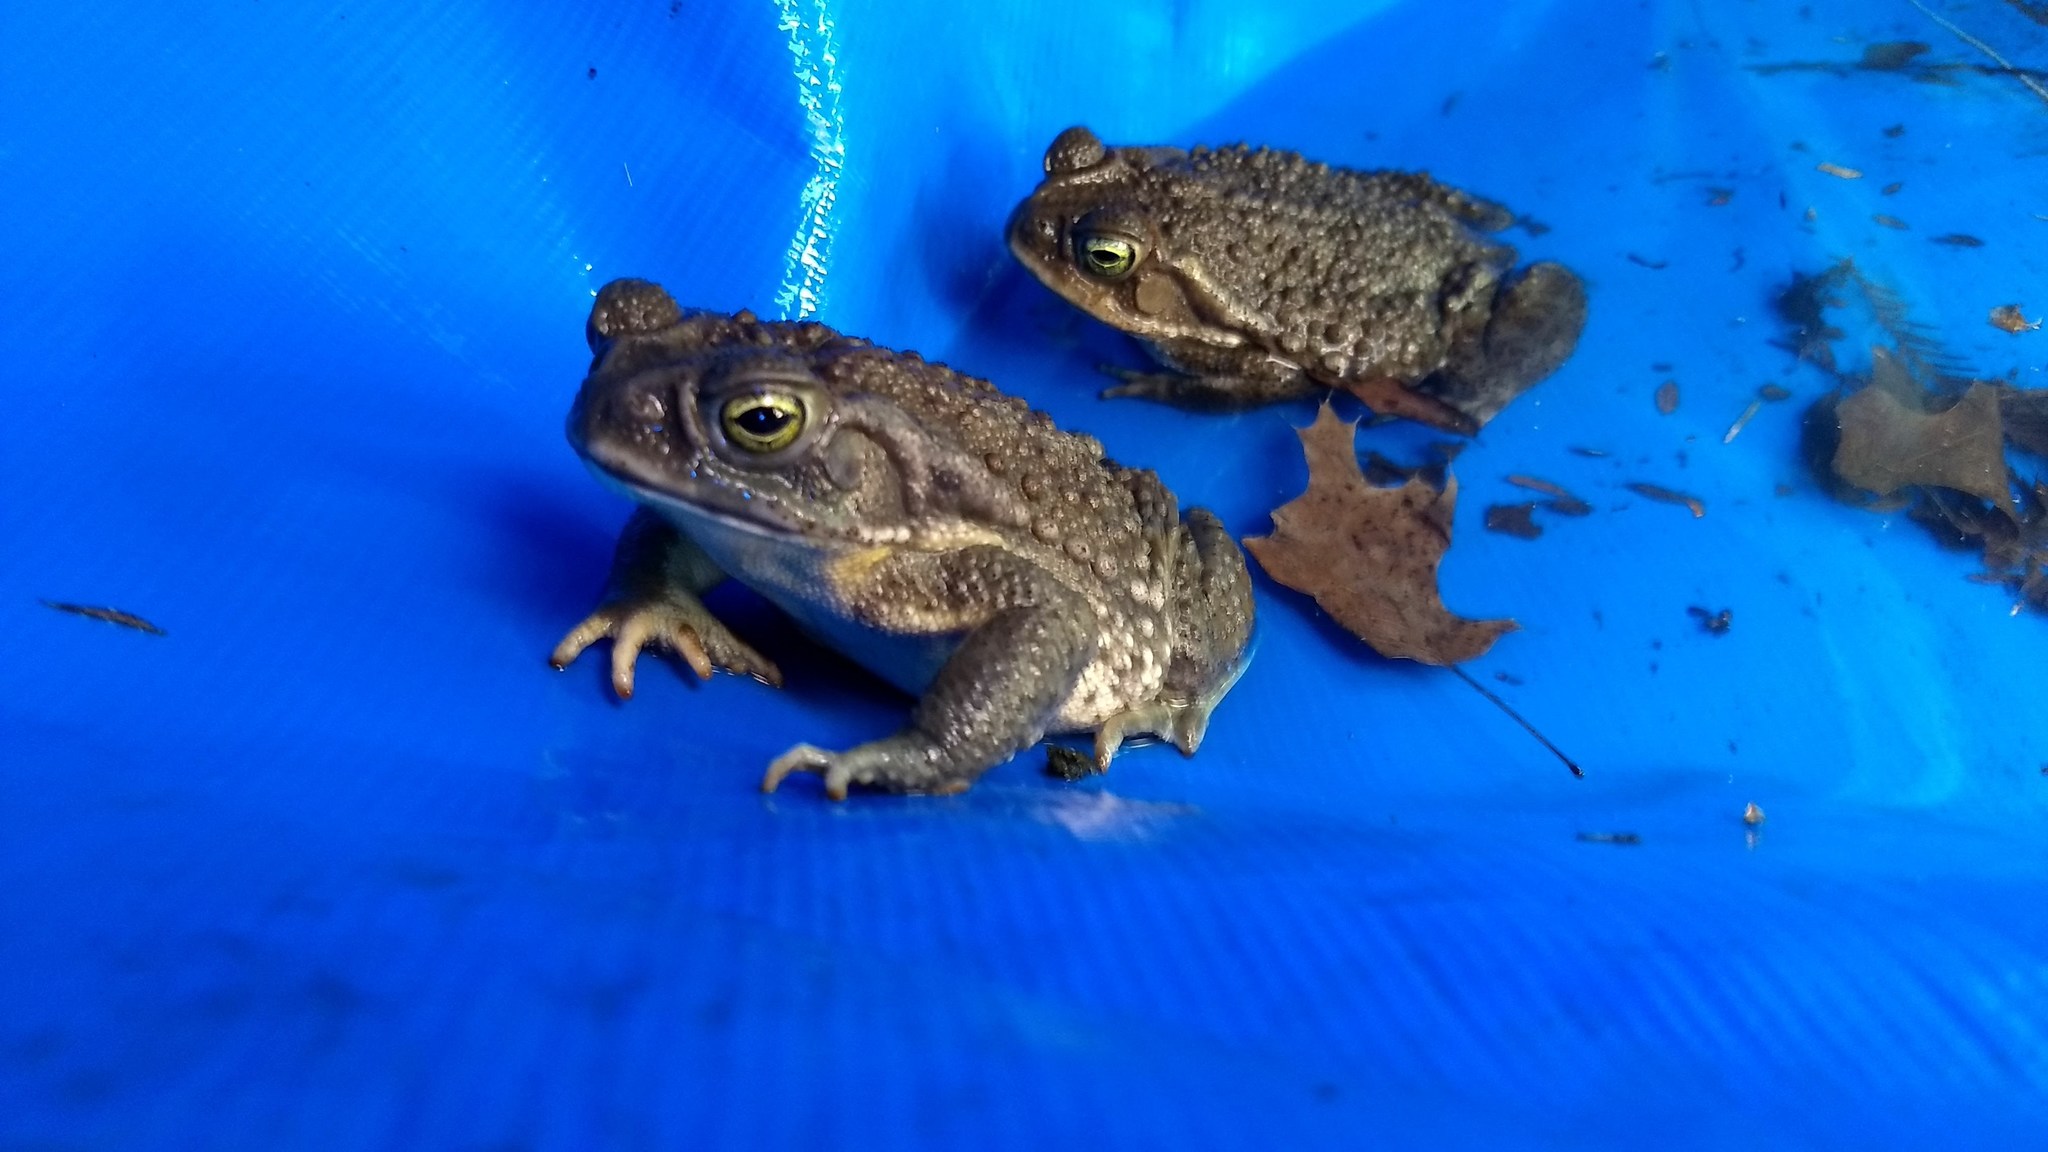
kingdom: Animalia
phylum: Chordata
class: Amphibia
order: Anura
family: Bufonidae
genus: Rhinella
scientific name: Rhinella arenarum
